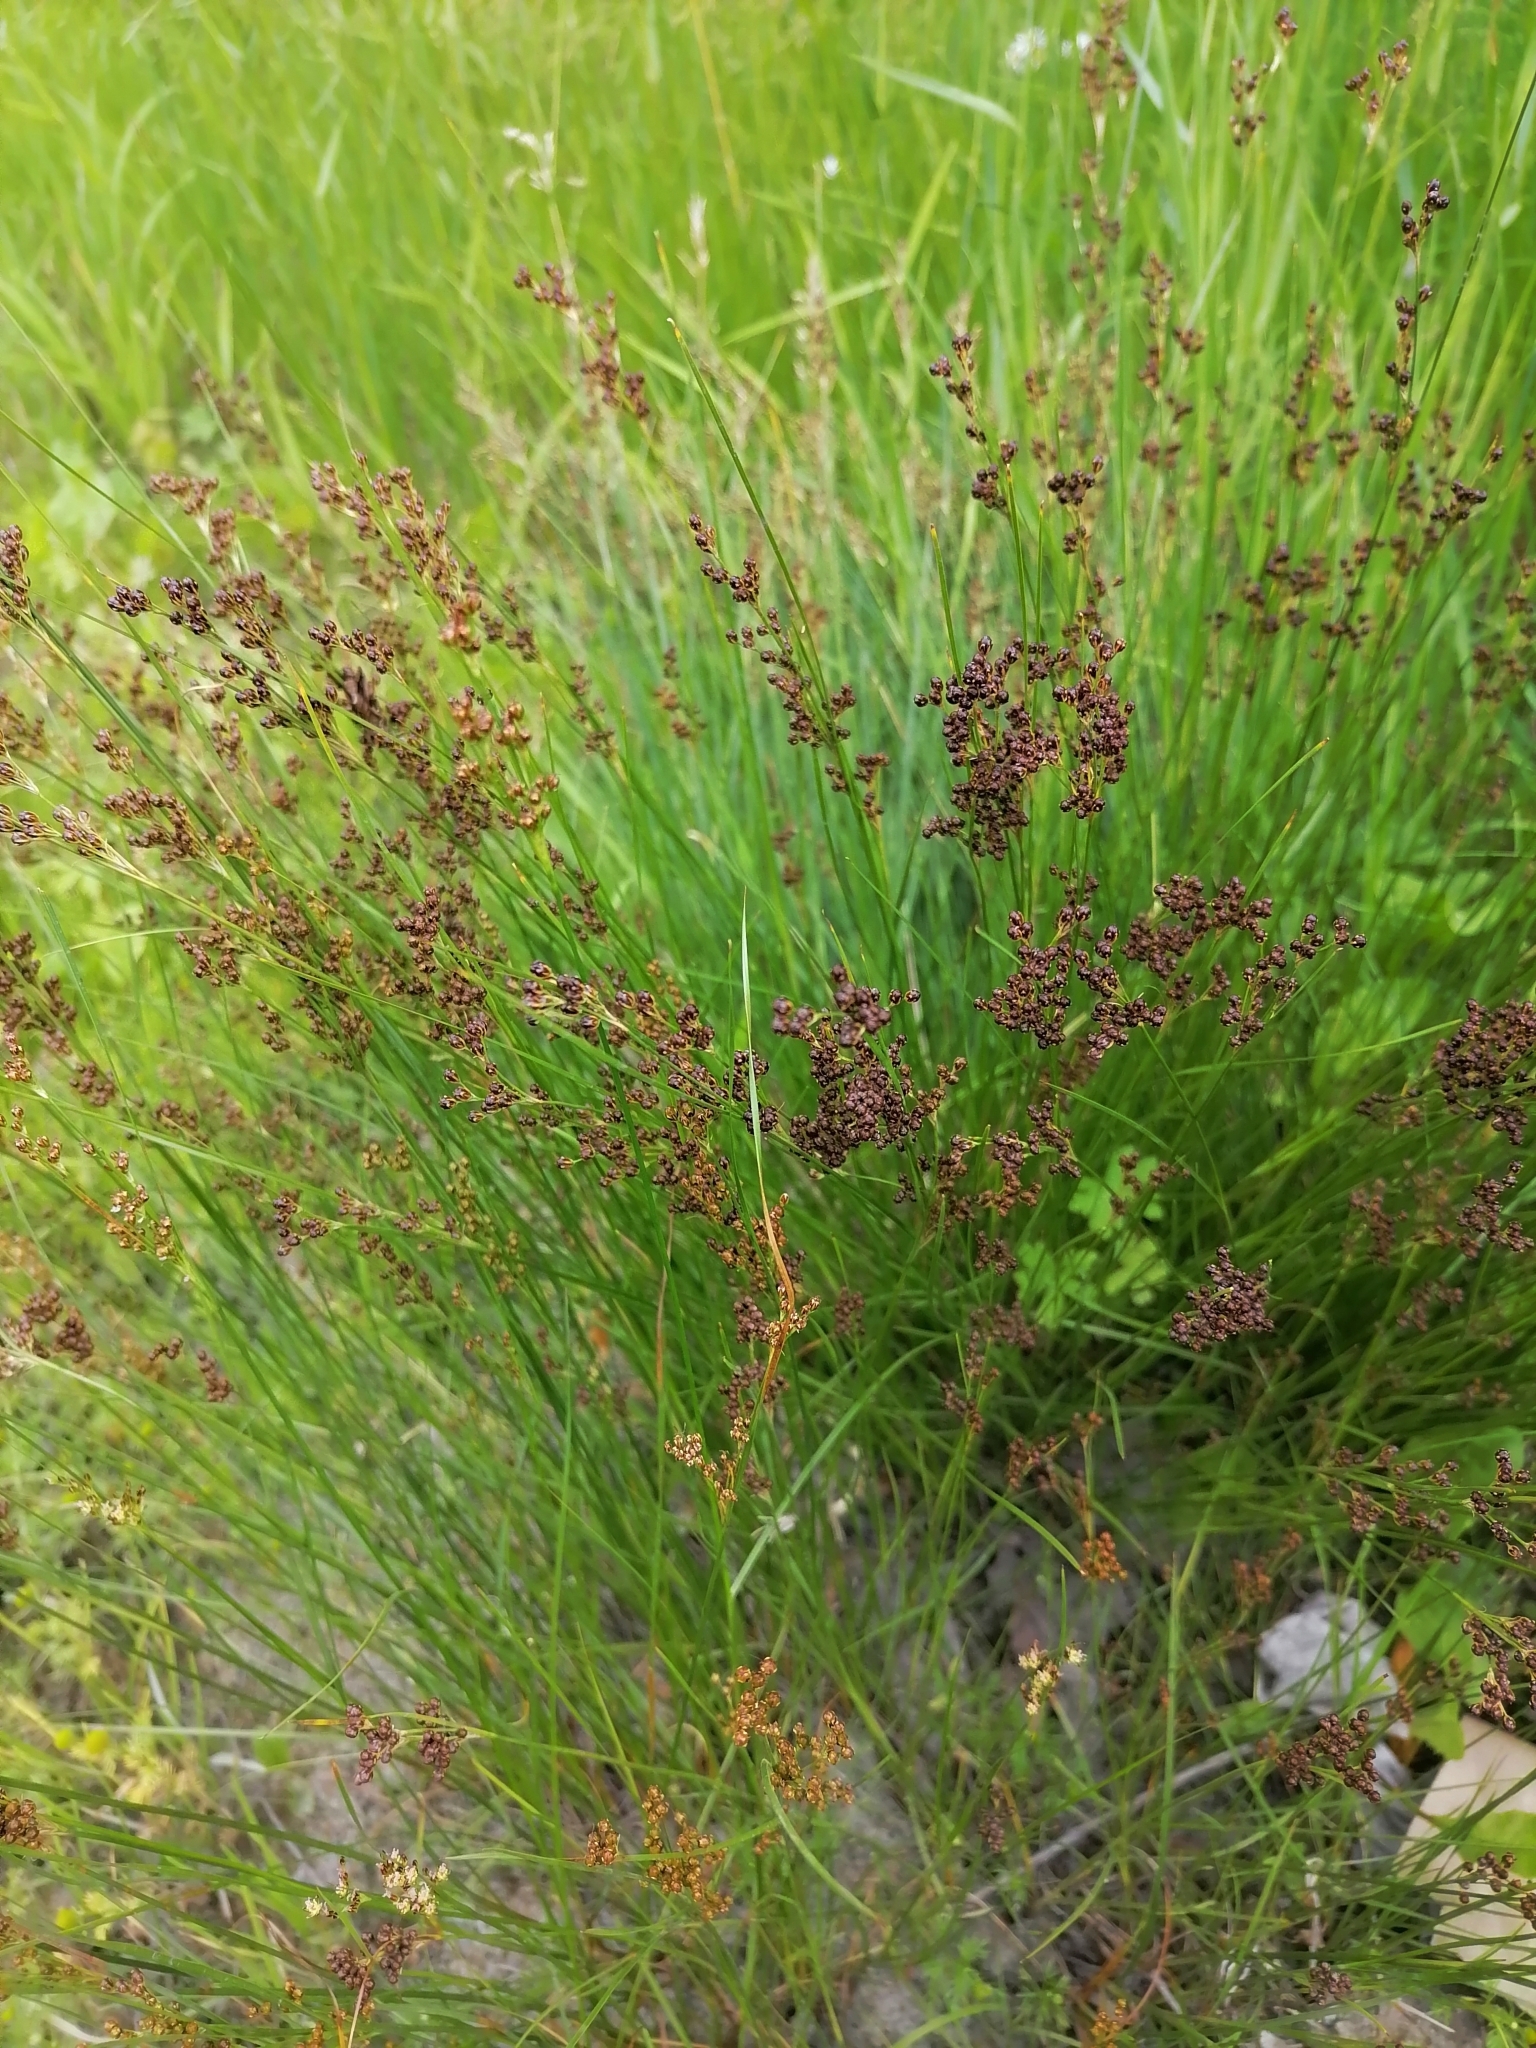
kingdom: Plantae
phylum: Tracheophyta
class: Liliopsida
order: Poales
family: Juncaceae
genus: Juncus
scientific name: Juncus compressus
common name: Round-fruited rush
